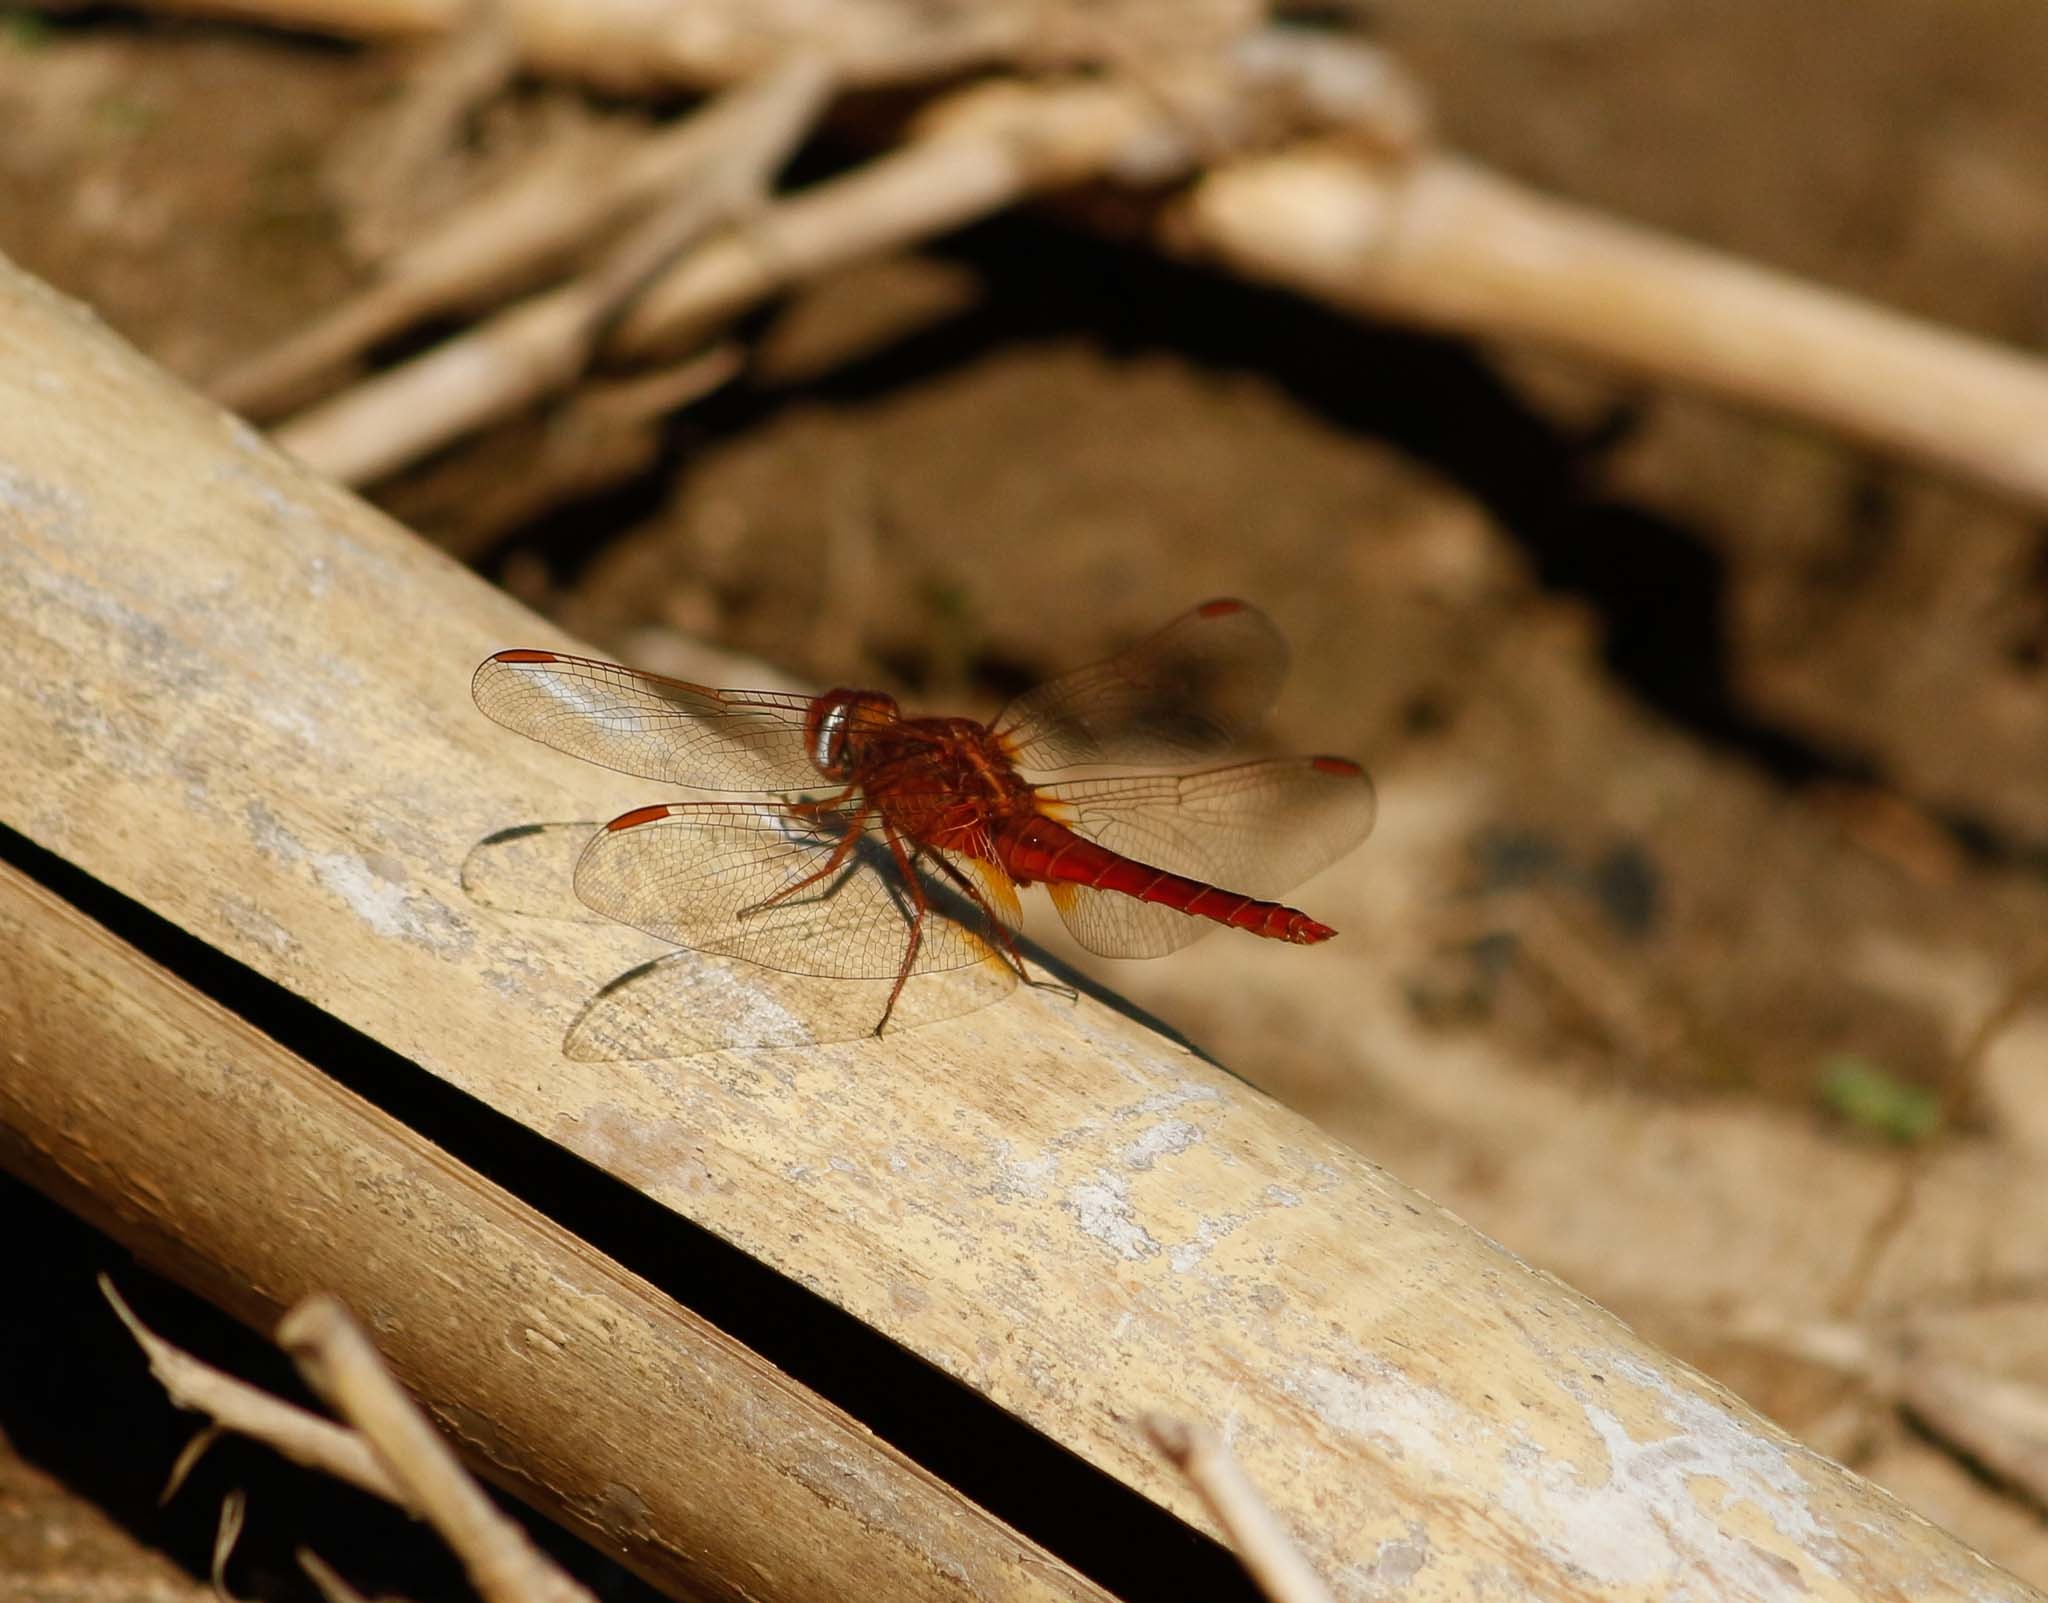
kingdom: Animalia
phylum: Arthropoda
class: Insecta
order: Odonata
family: Libellulidae
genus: Crocothemis
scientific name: Crocothemis servilia
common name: Scarlet skimmer
